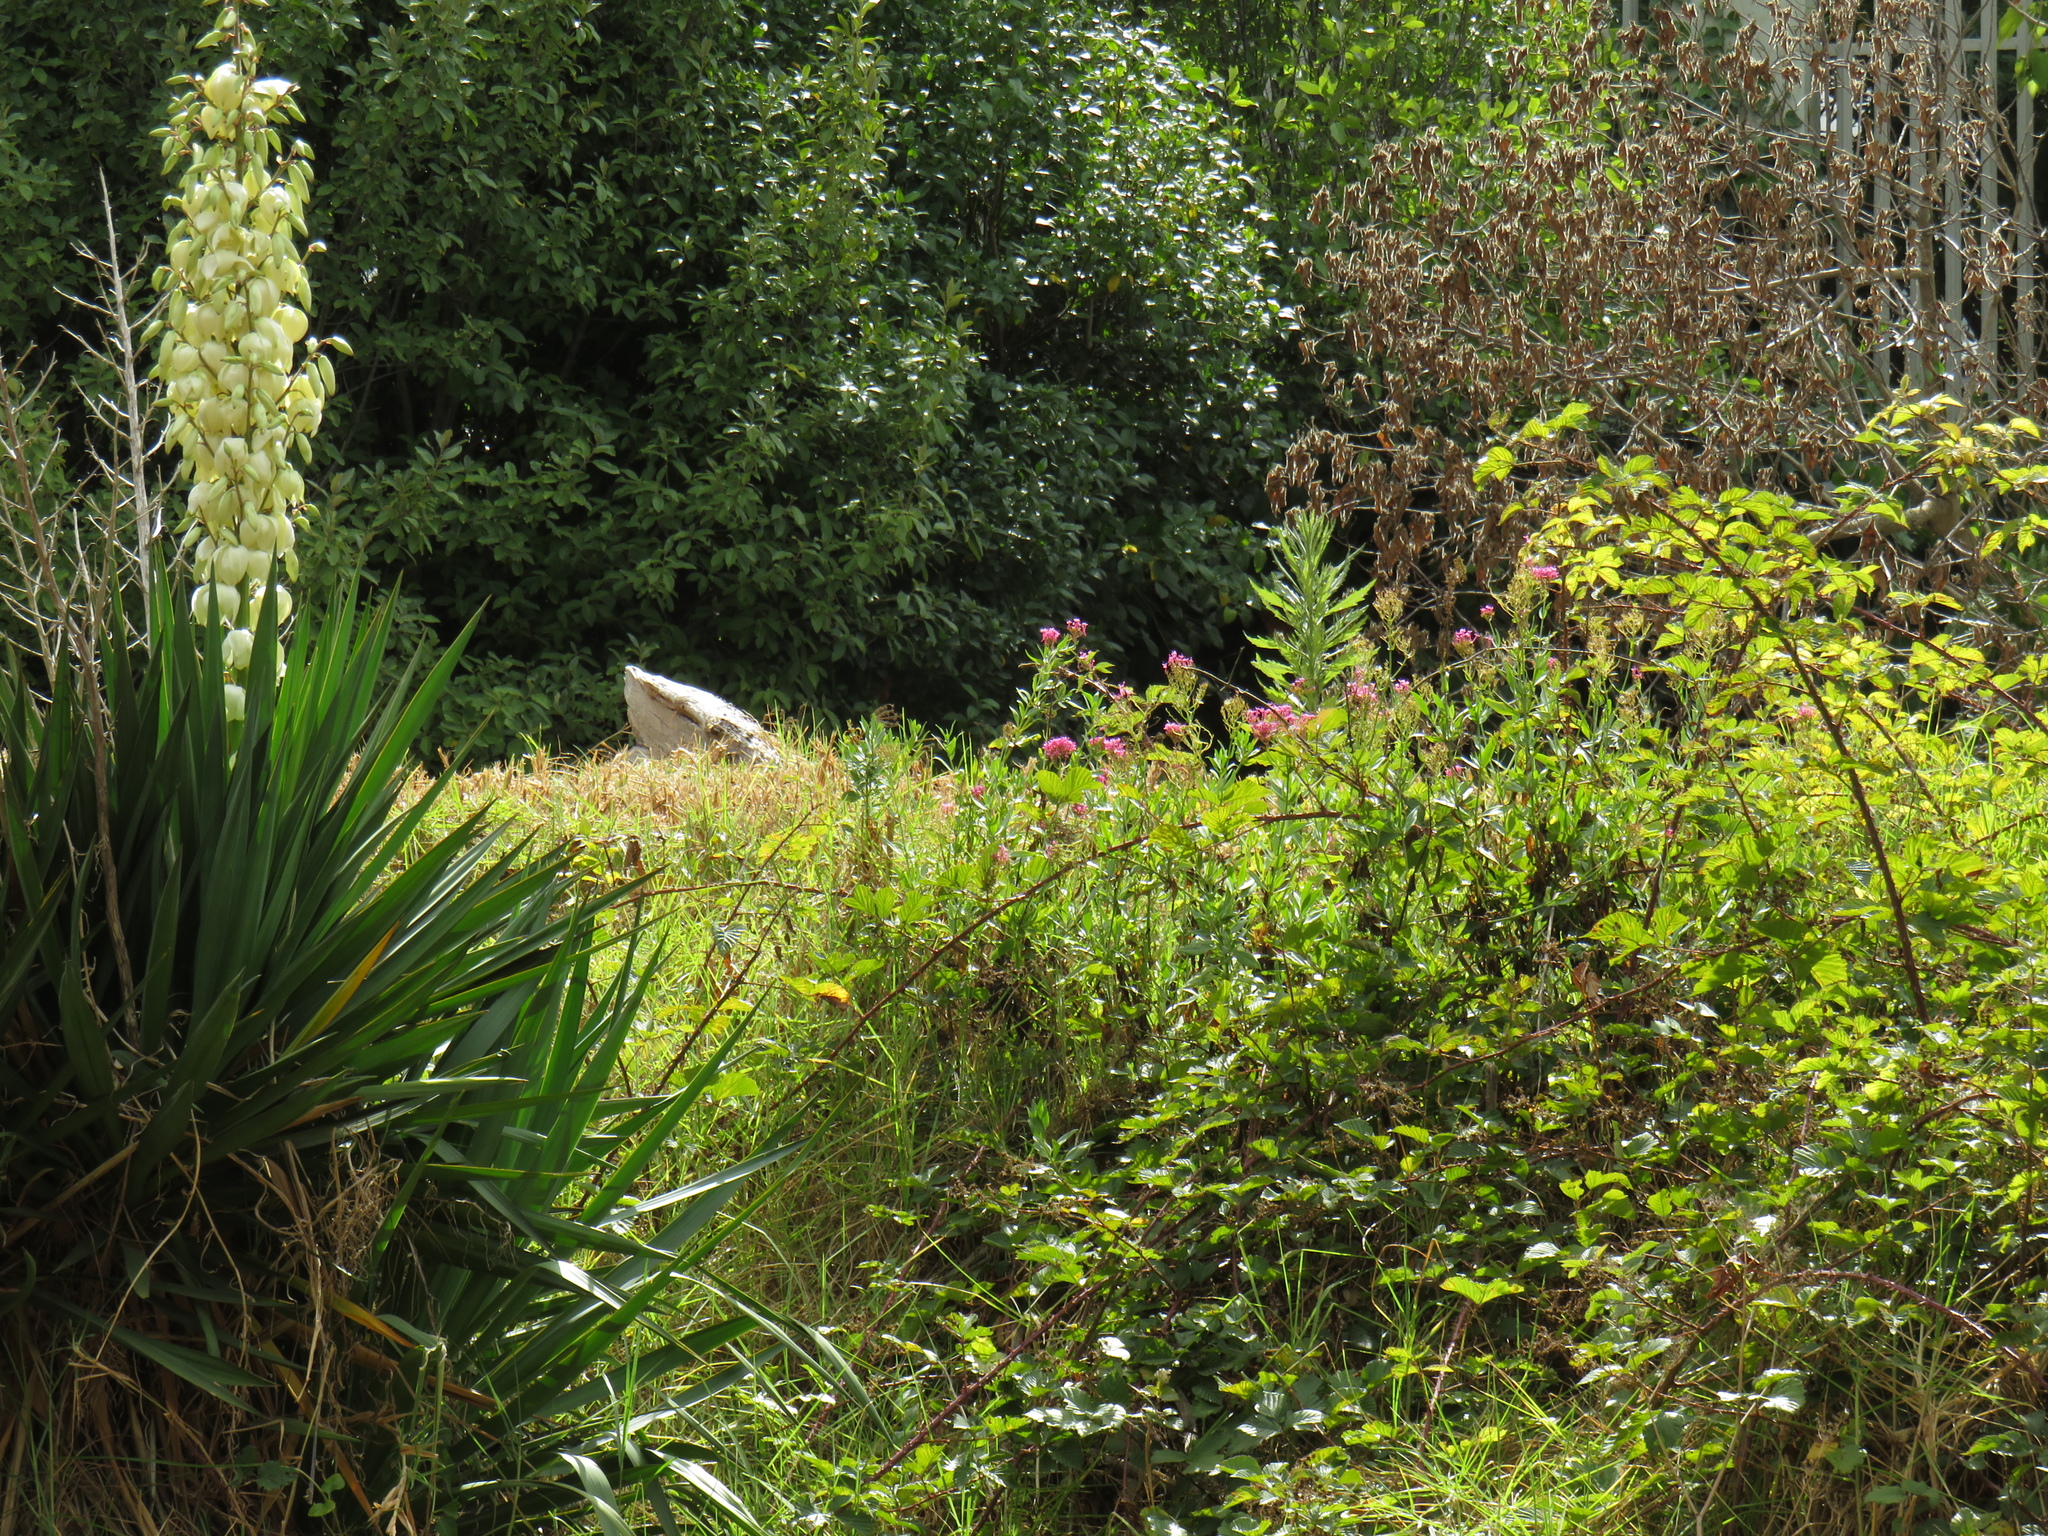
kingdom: Plantae
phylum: Tracheophyta
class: Magnoliopsida
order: Dipsacales
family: Caprifoliaceae
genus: Centranthus
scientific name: Centranthus ruber
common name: Red valerian
